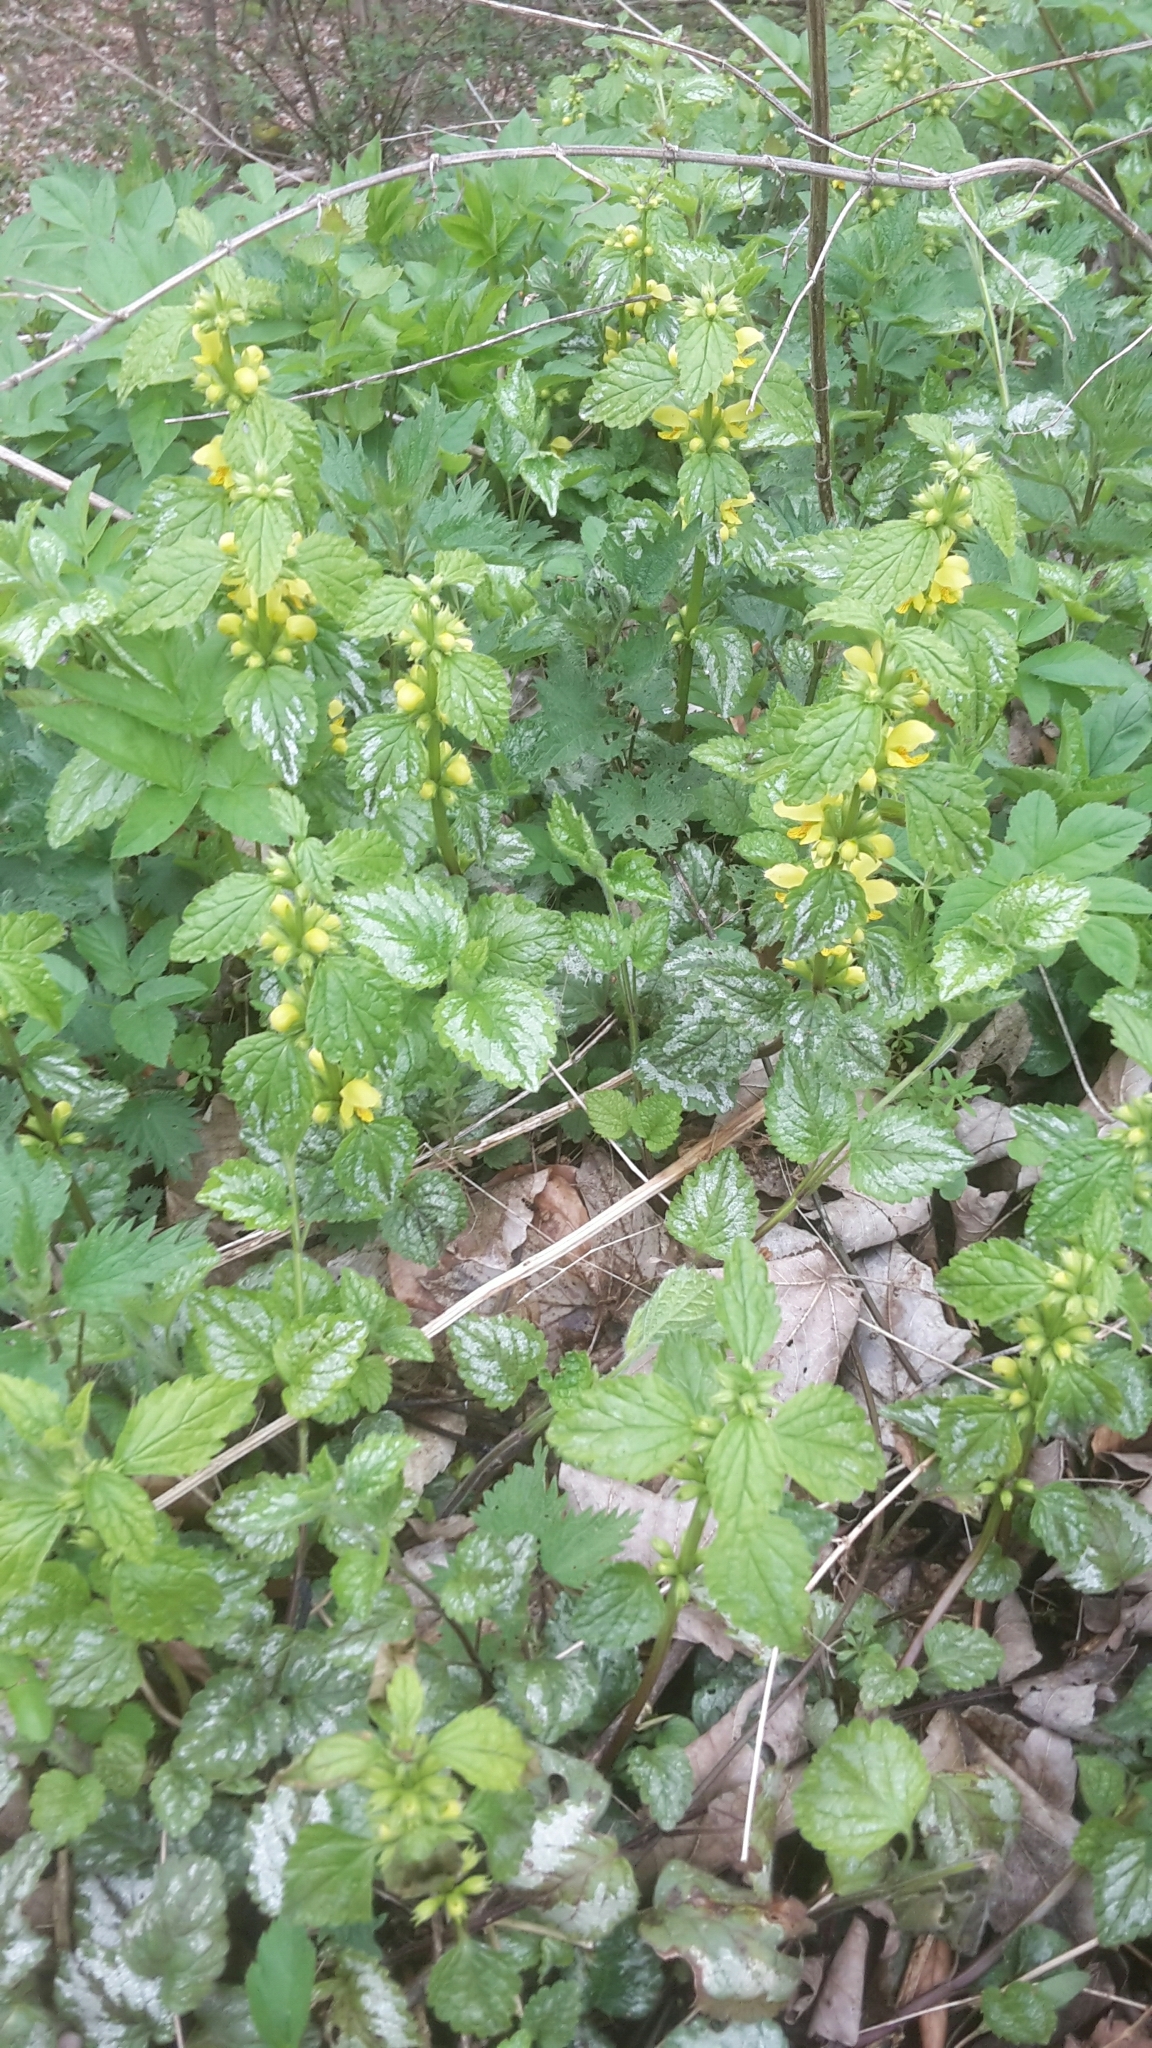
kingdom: Plantae
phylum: Tracheophyta
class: Magnoliopsida
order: Lamiales
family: Lamiaceae
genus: Lamium
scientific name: Lamium galeobdolon
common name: Yellow archangel
